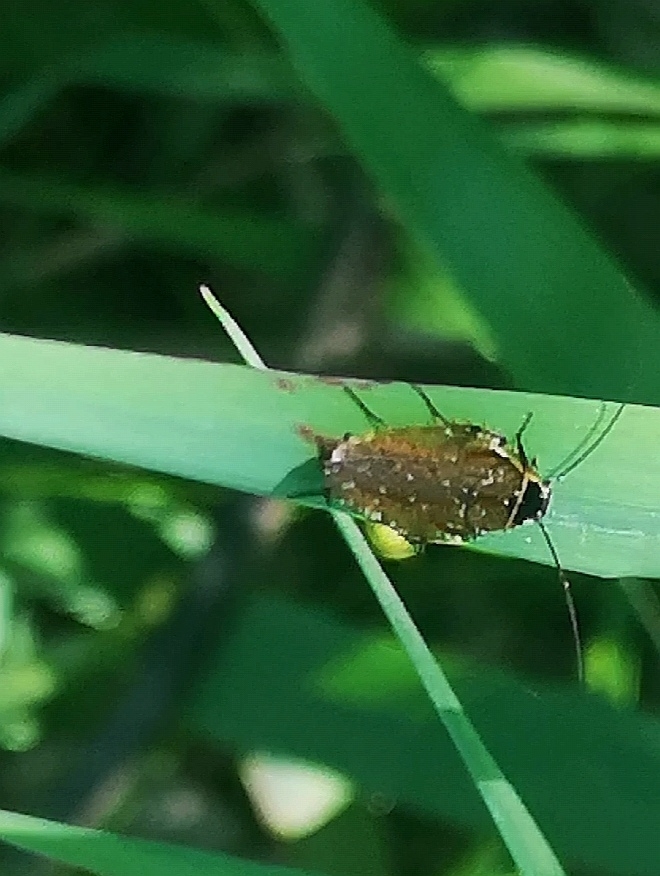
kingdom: Animalia
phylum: Arthropoda
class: Insecta
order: Blattodea
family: Ectobiidae
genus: Ectobius
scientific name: Ectobius sylvestris
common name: Forest cockroach
